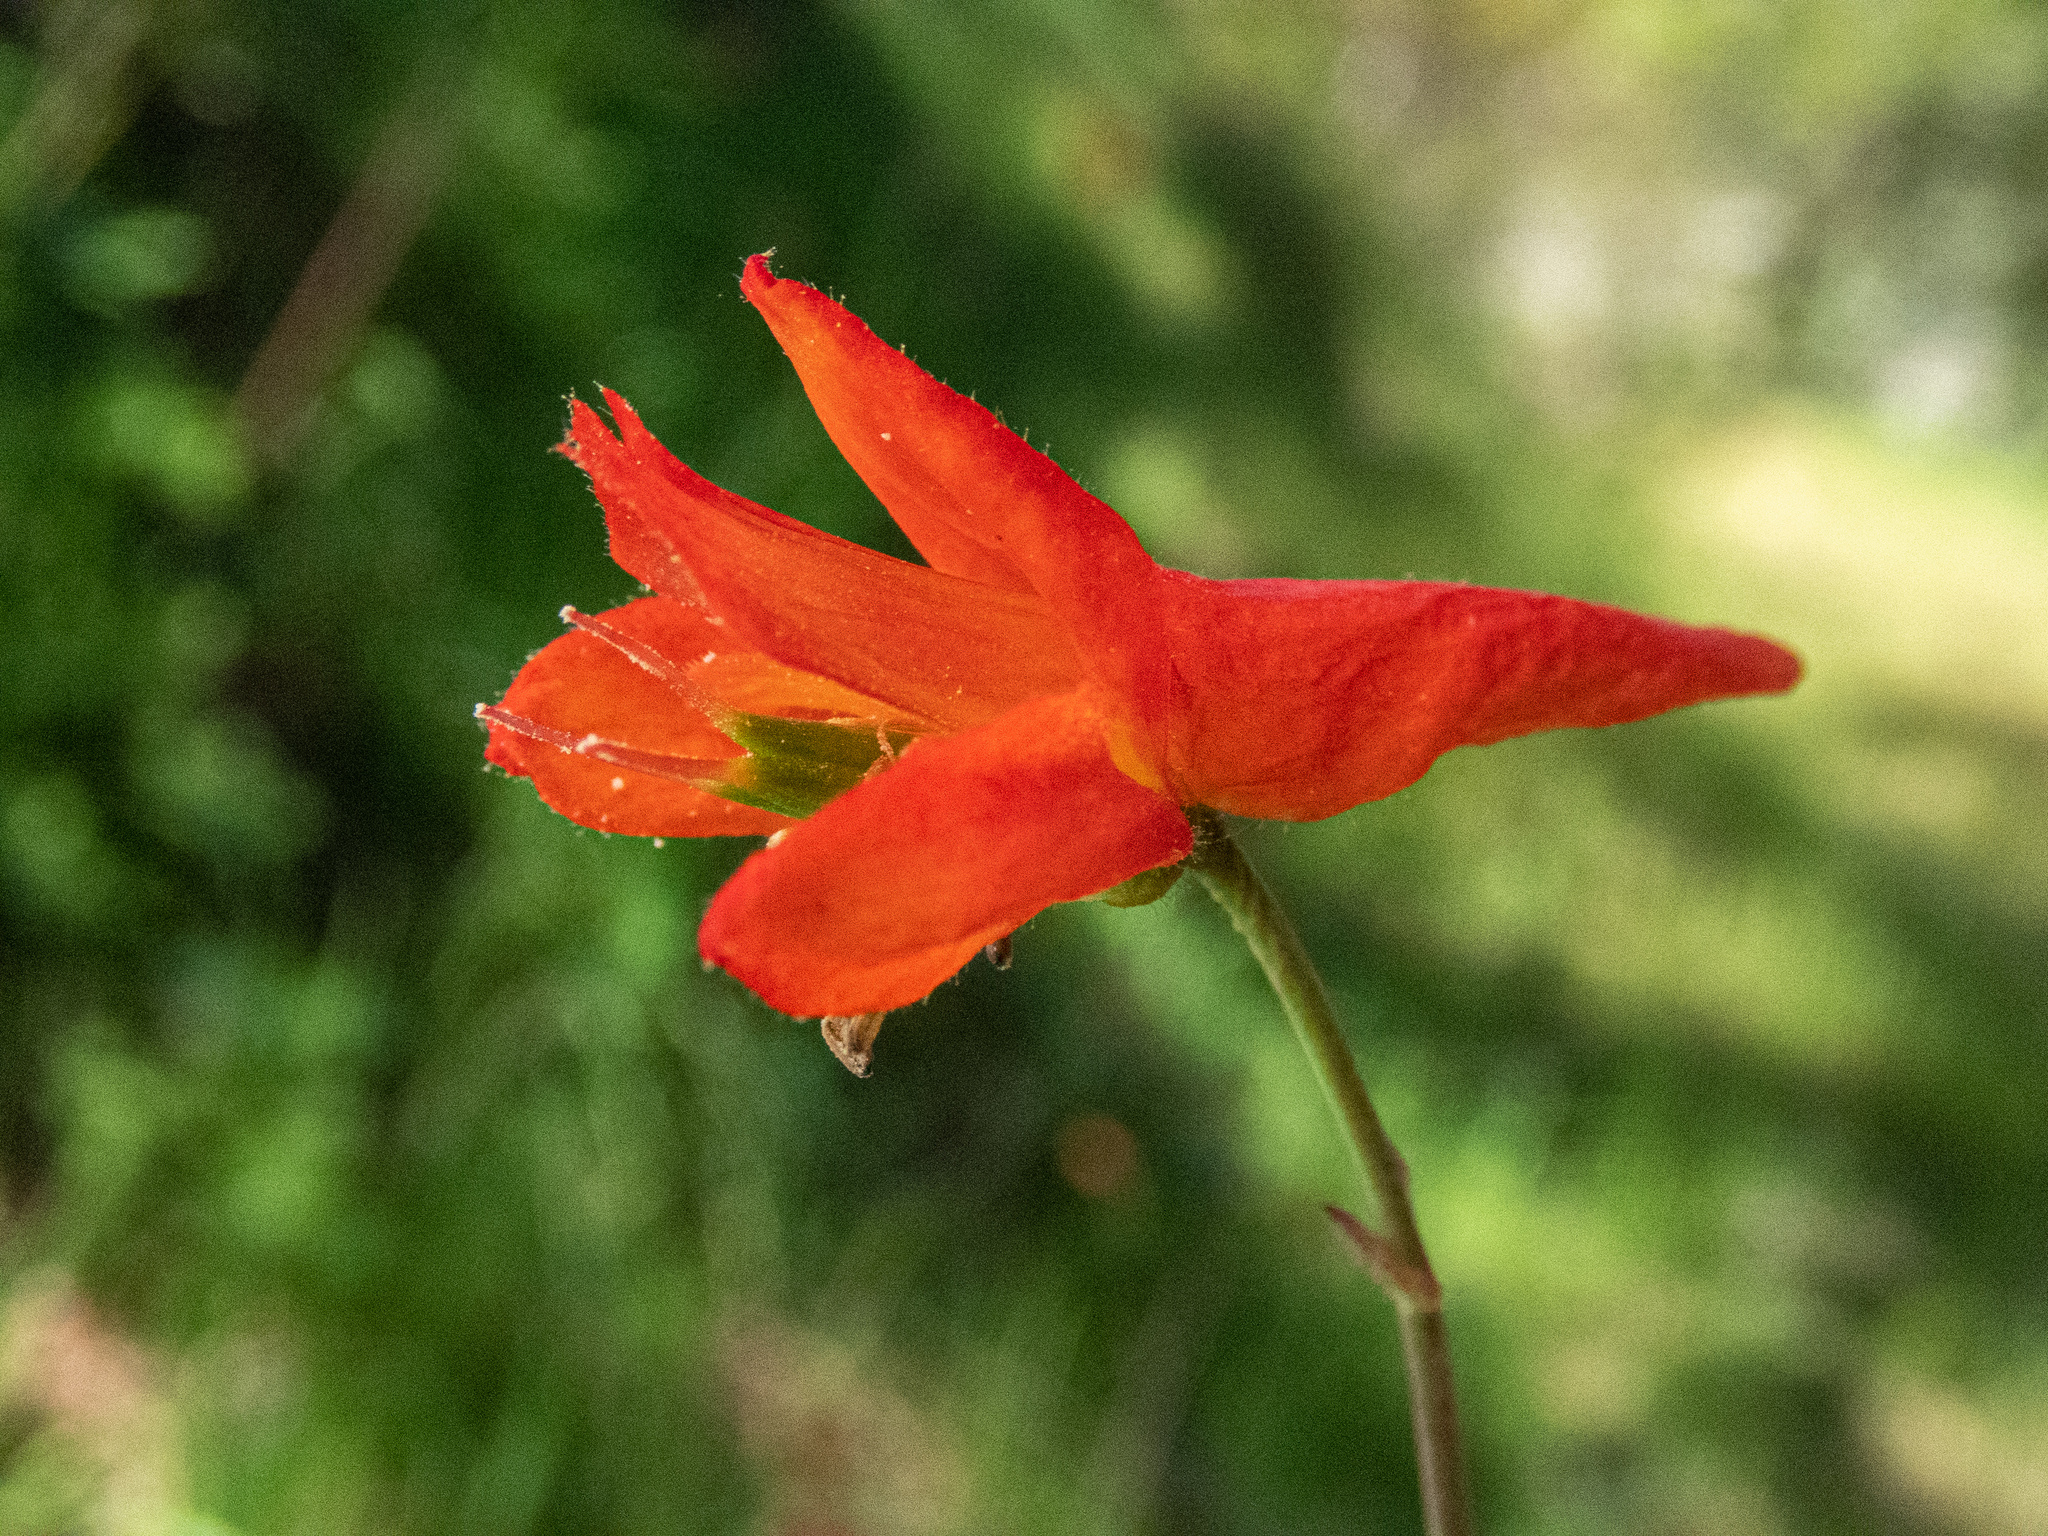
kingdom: Plantae
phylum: Tracheophyta
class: Magnoliopsida
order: Ranunculales
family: Ranunculaceae
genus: Delphinium
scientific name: Delphinium nudicaule
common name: Red larkspur
